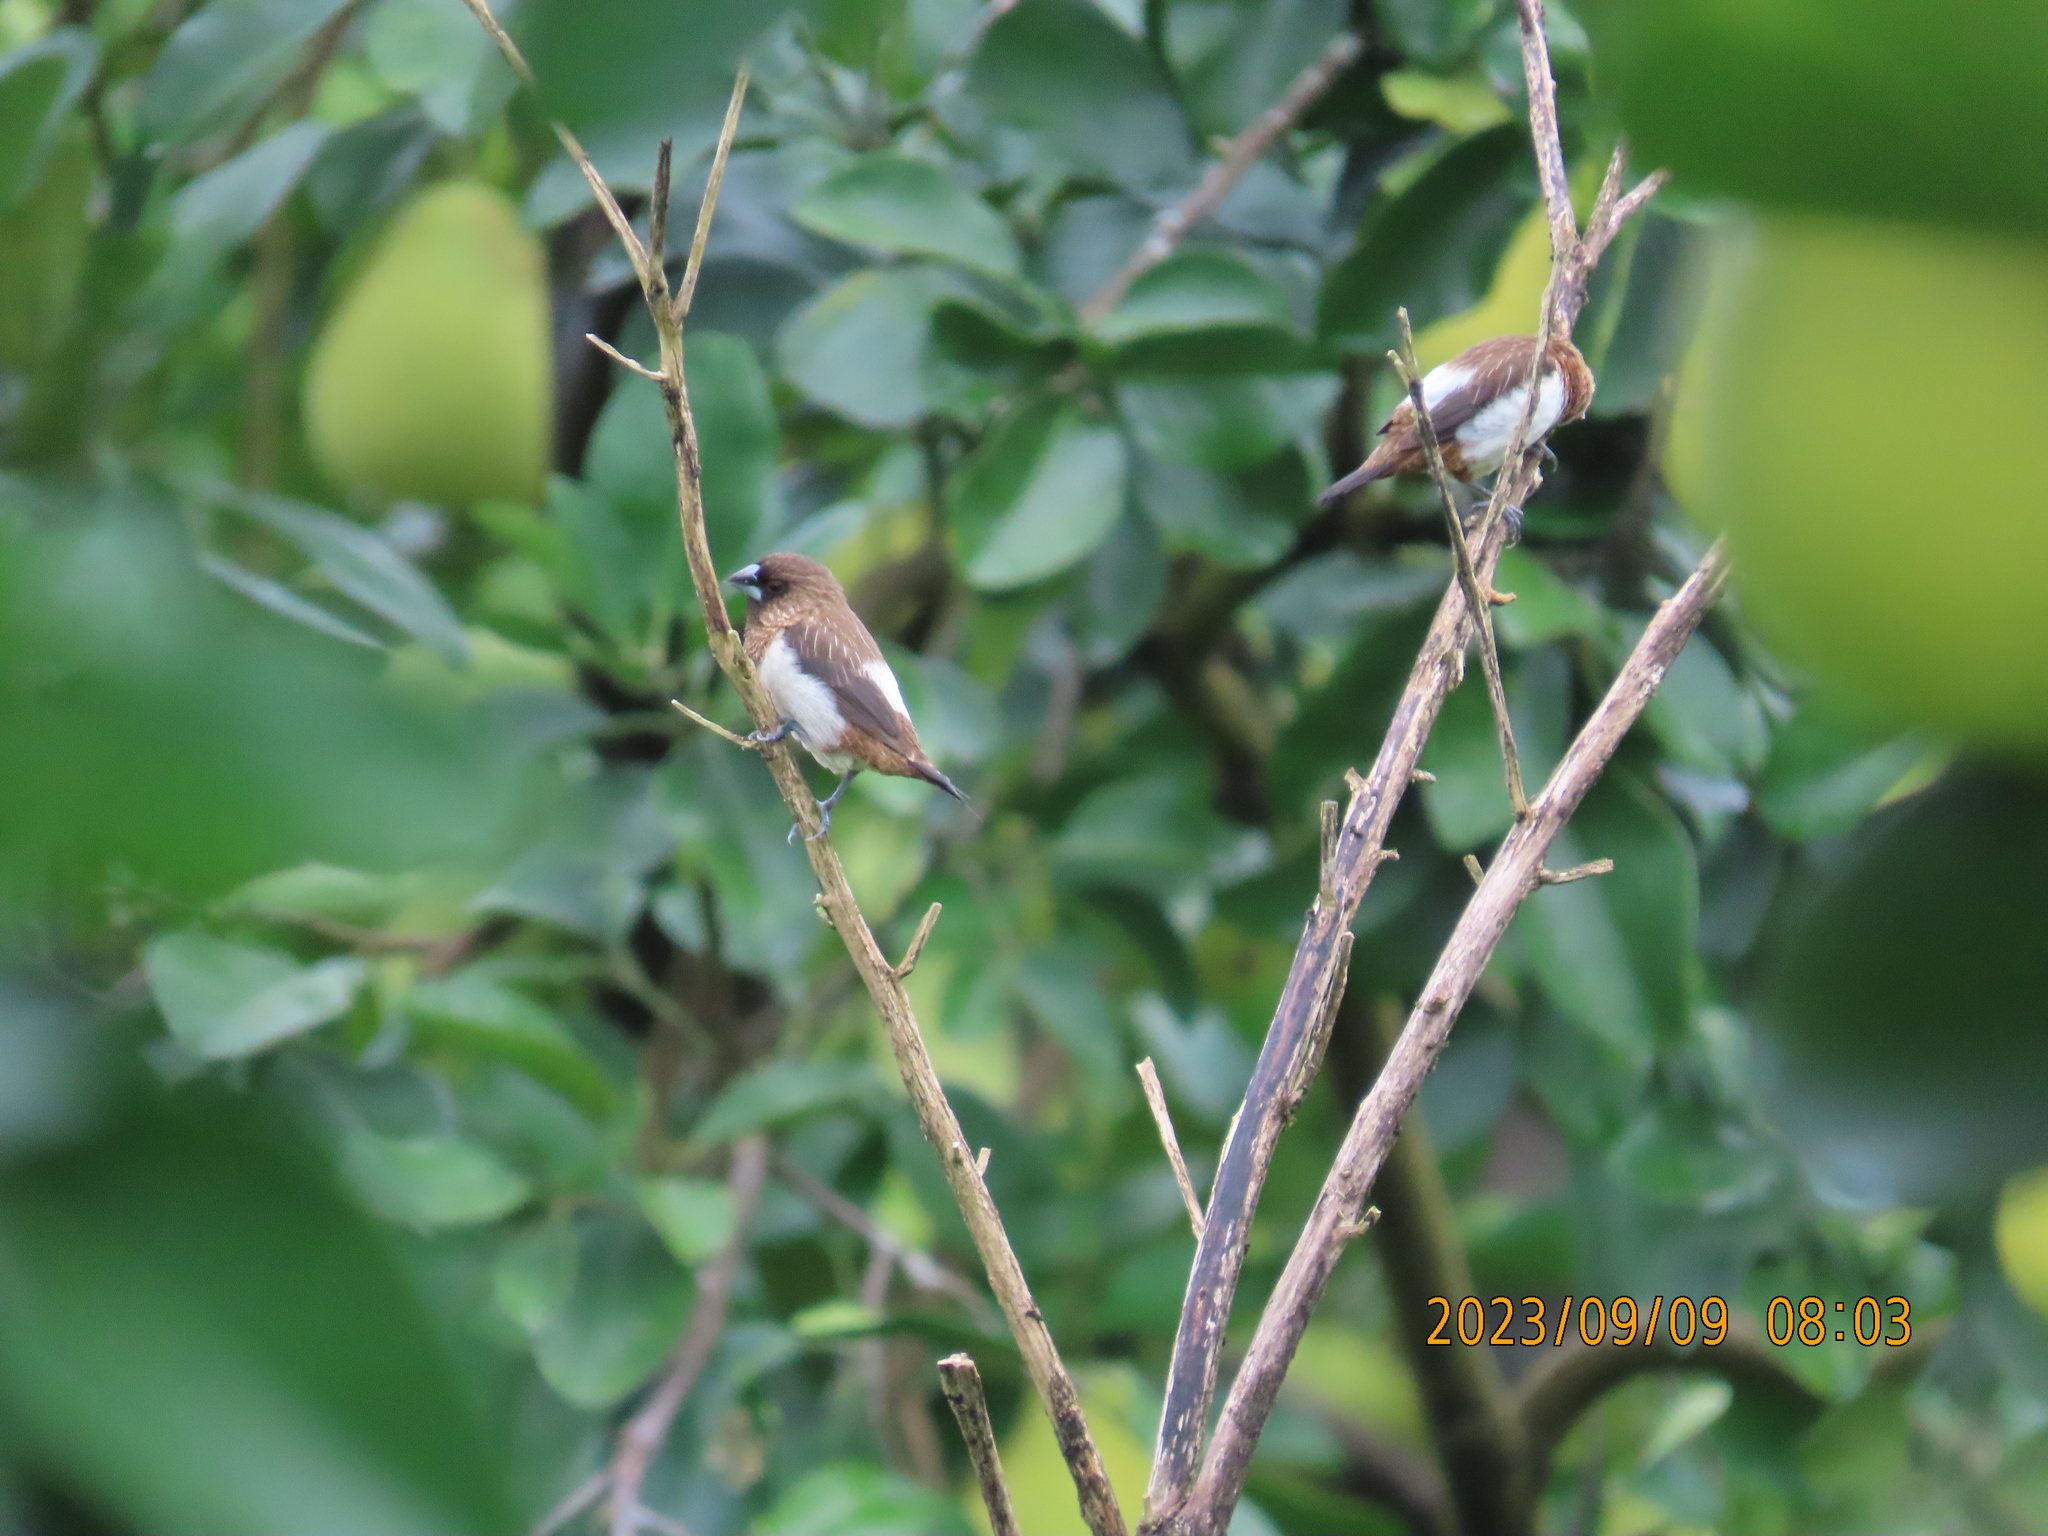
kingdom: Animalia
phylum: Chordata
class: Aves
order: Passeriformes
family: Estrildidae
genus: Lonchura
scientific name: Lonchura striata
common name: White-rumped munia
